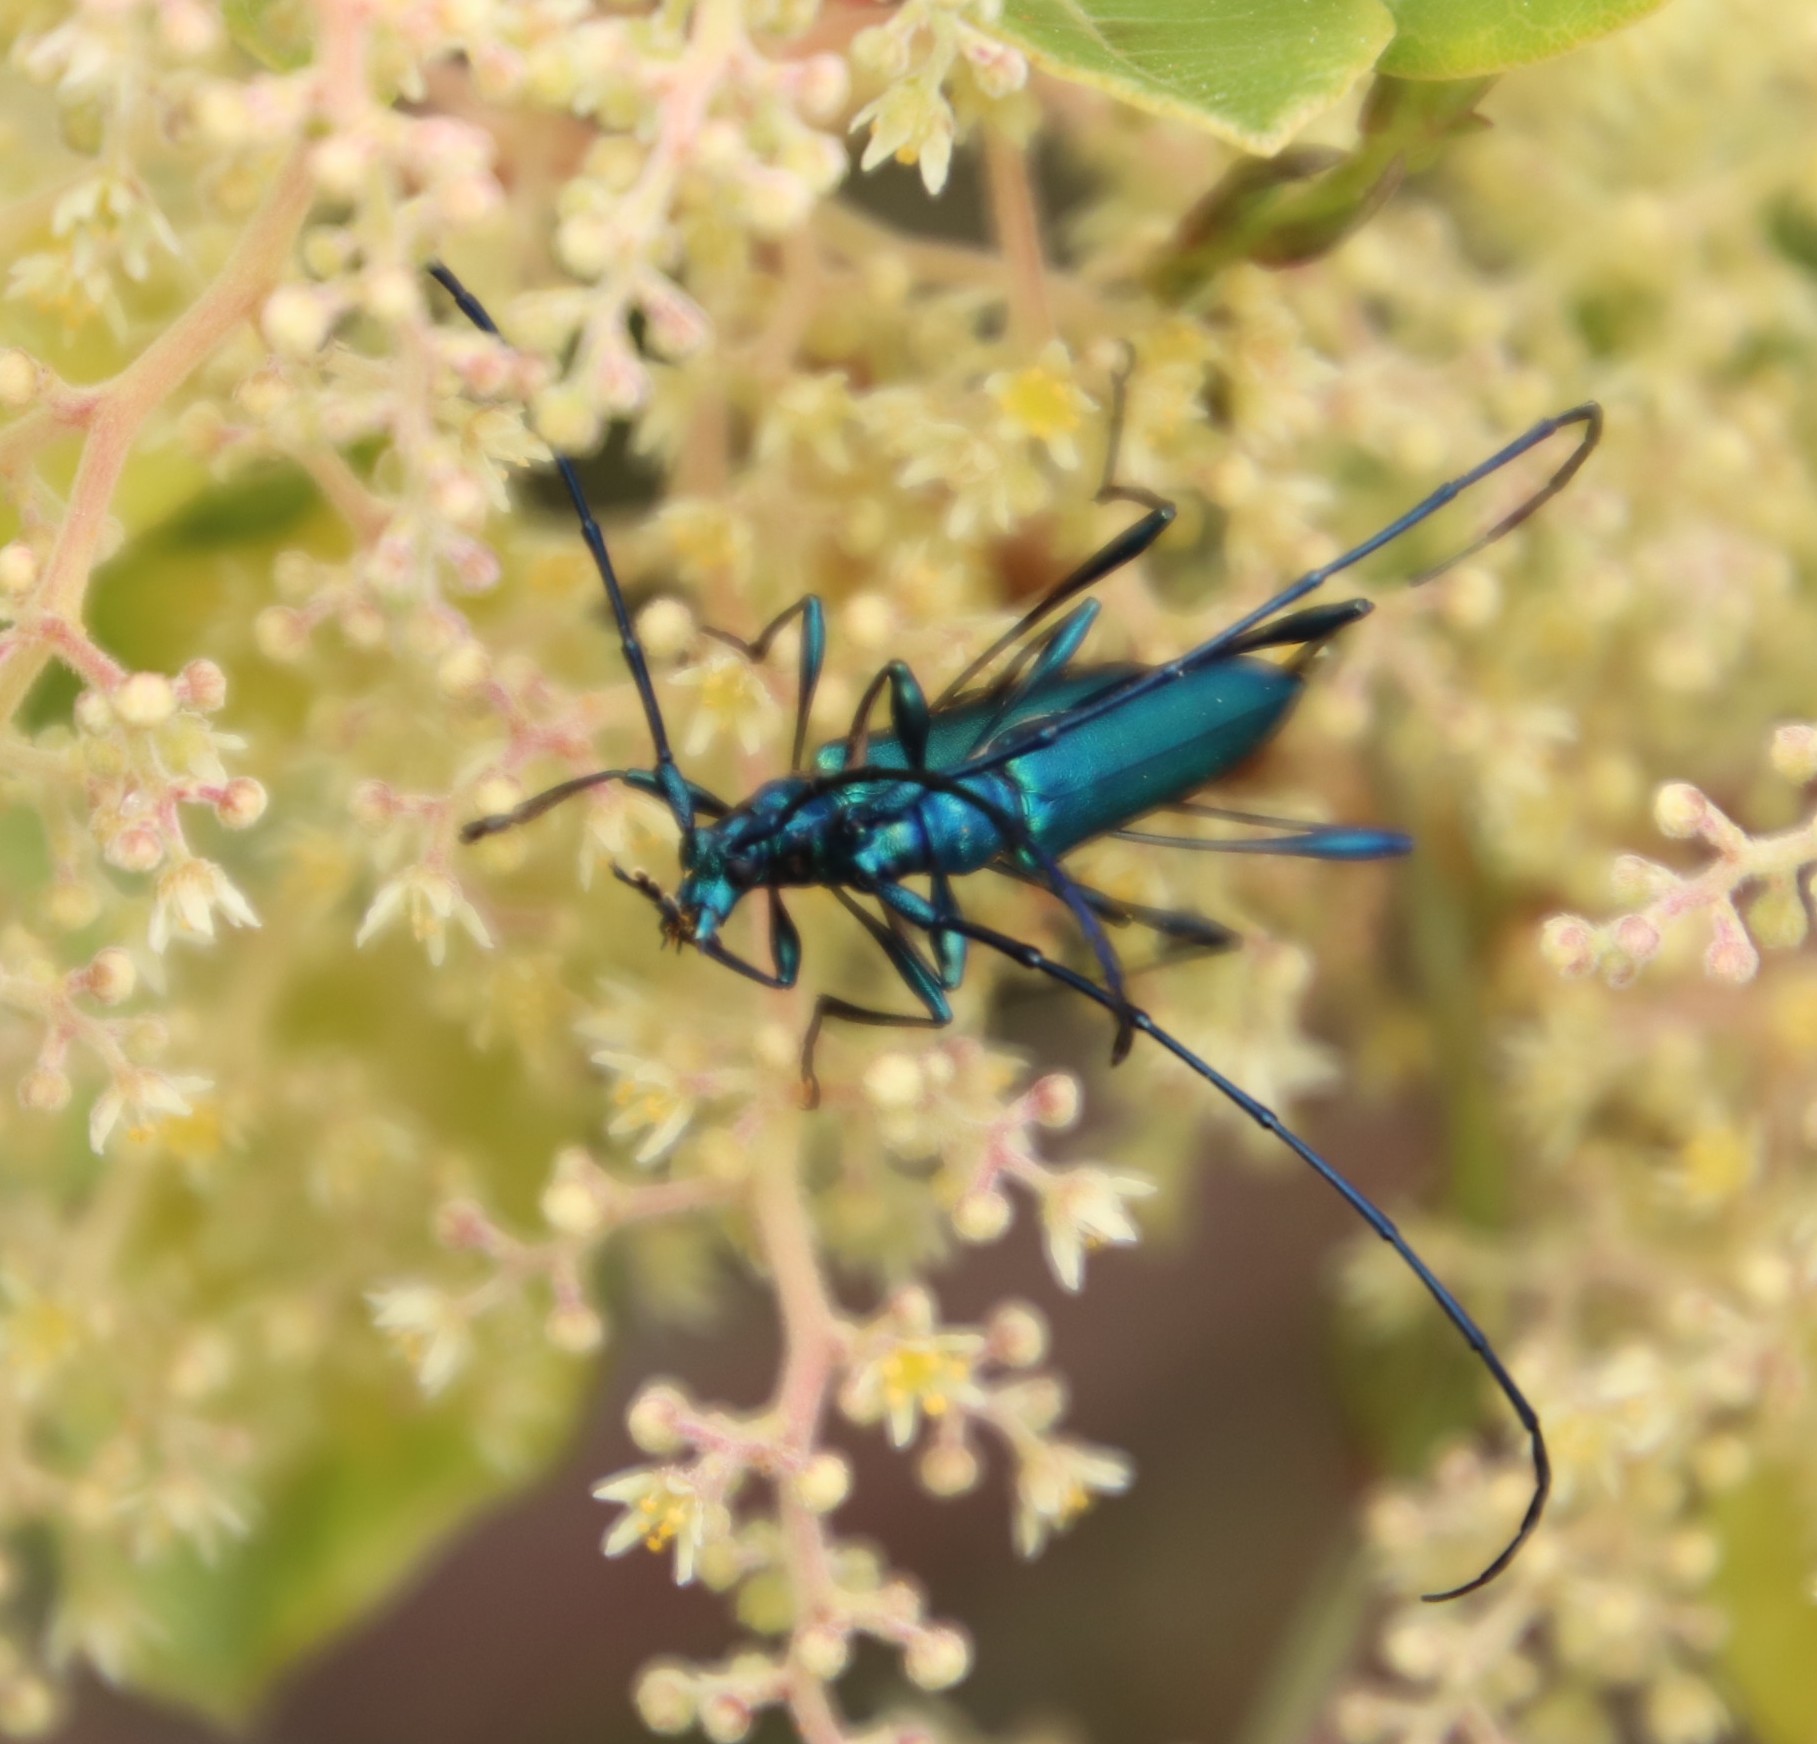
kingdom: Plantae
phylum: Tracheophyta
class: Magnoliopsida
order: Sapindales
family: Anacardiaceae
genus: Searsia
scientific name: Searsia tomentosa
